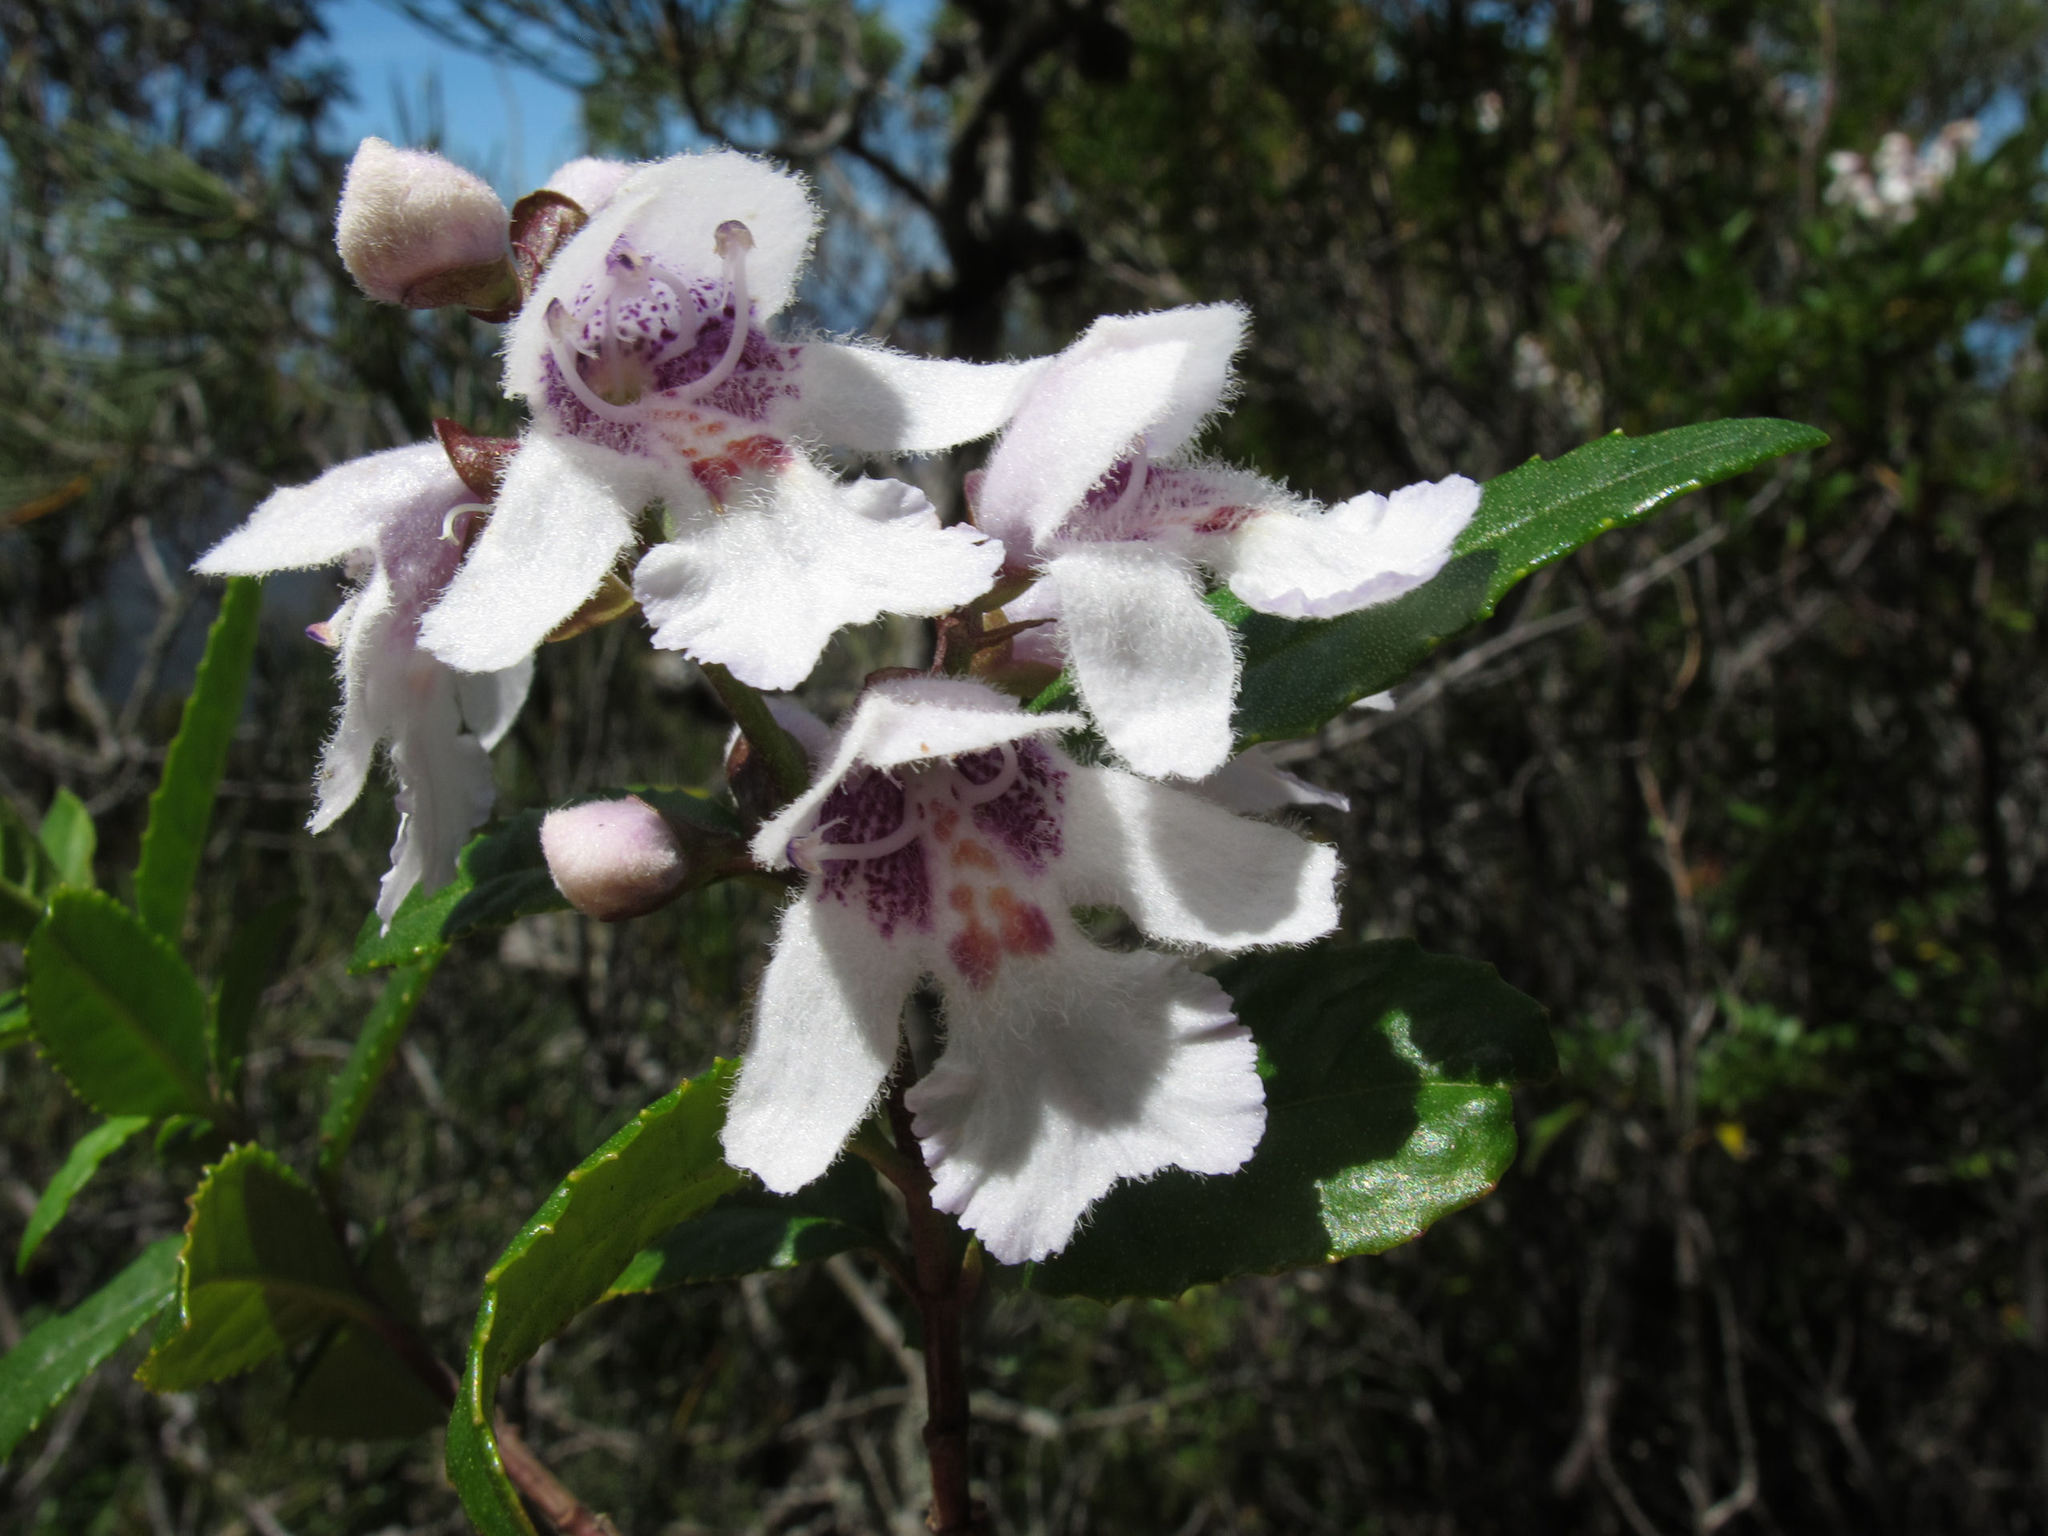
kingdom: Plantae
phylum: Tracheophyta
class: Magnoliopsida
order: Lamiales
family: Lamiaceae
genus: Prostanthera
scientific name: Prostanthera lasianthos
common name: Mountain-lilac
